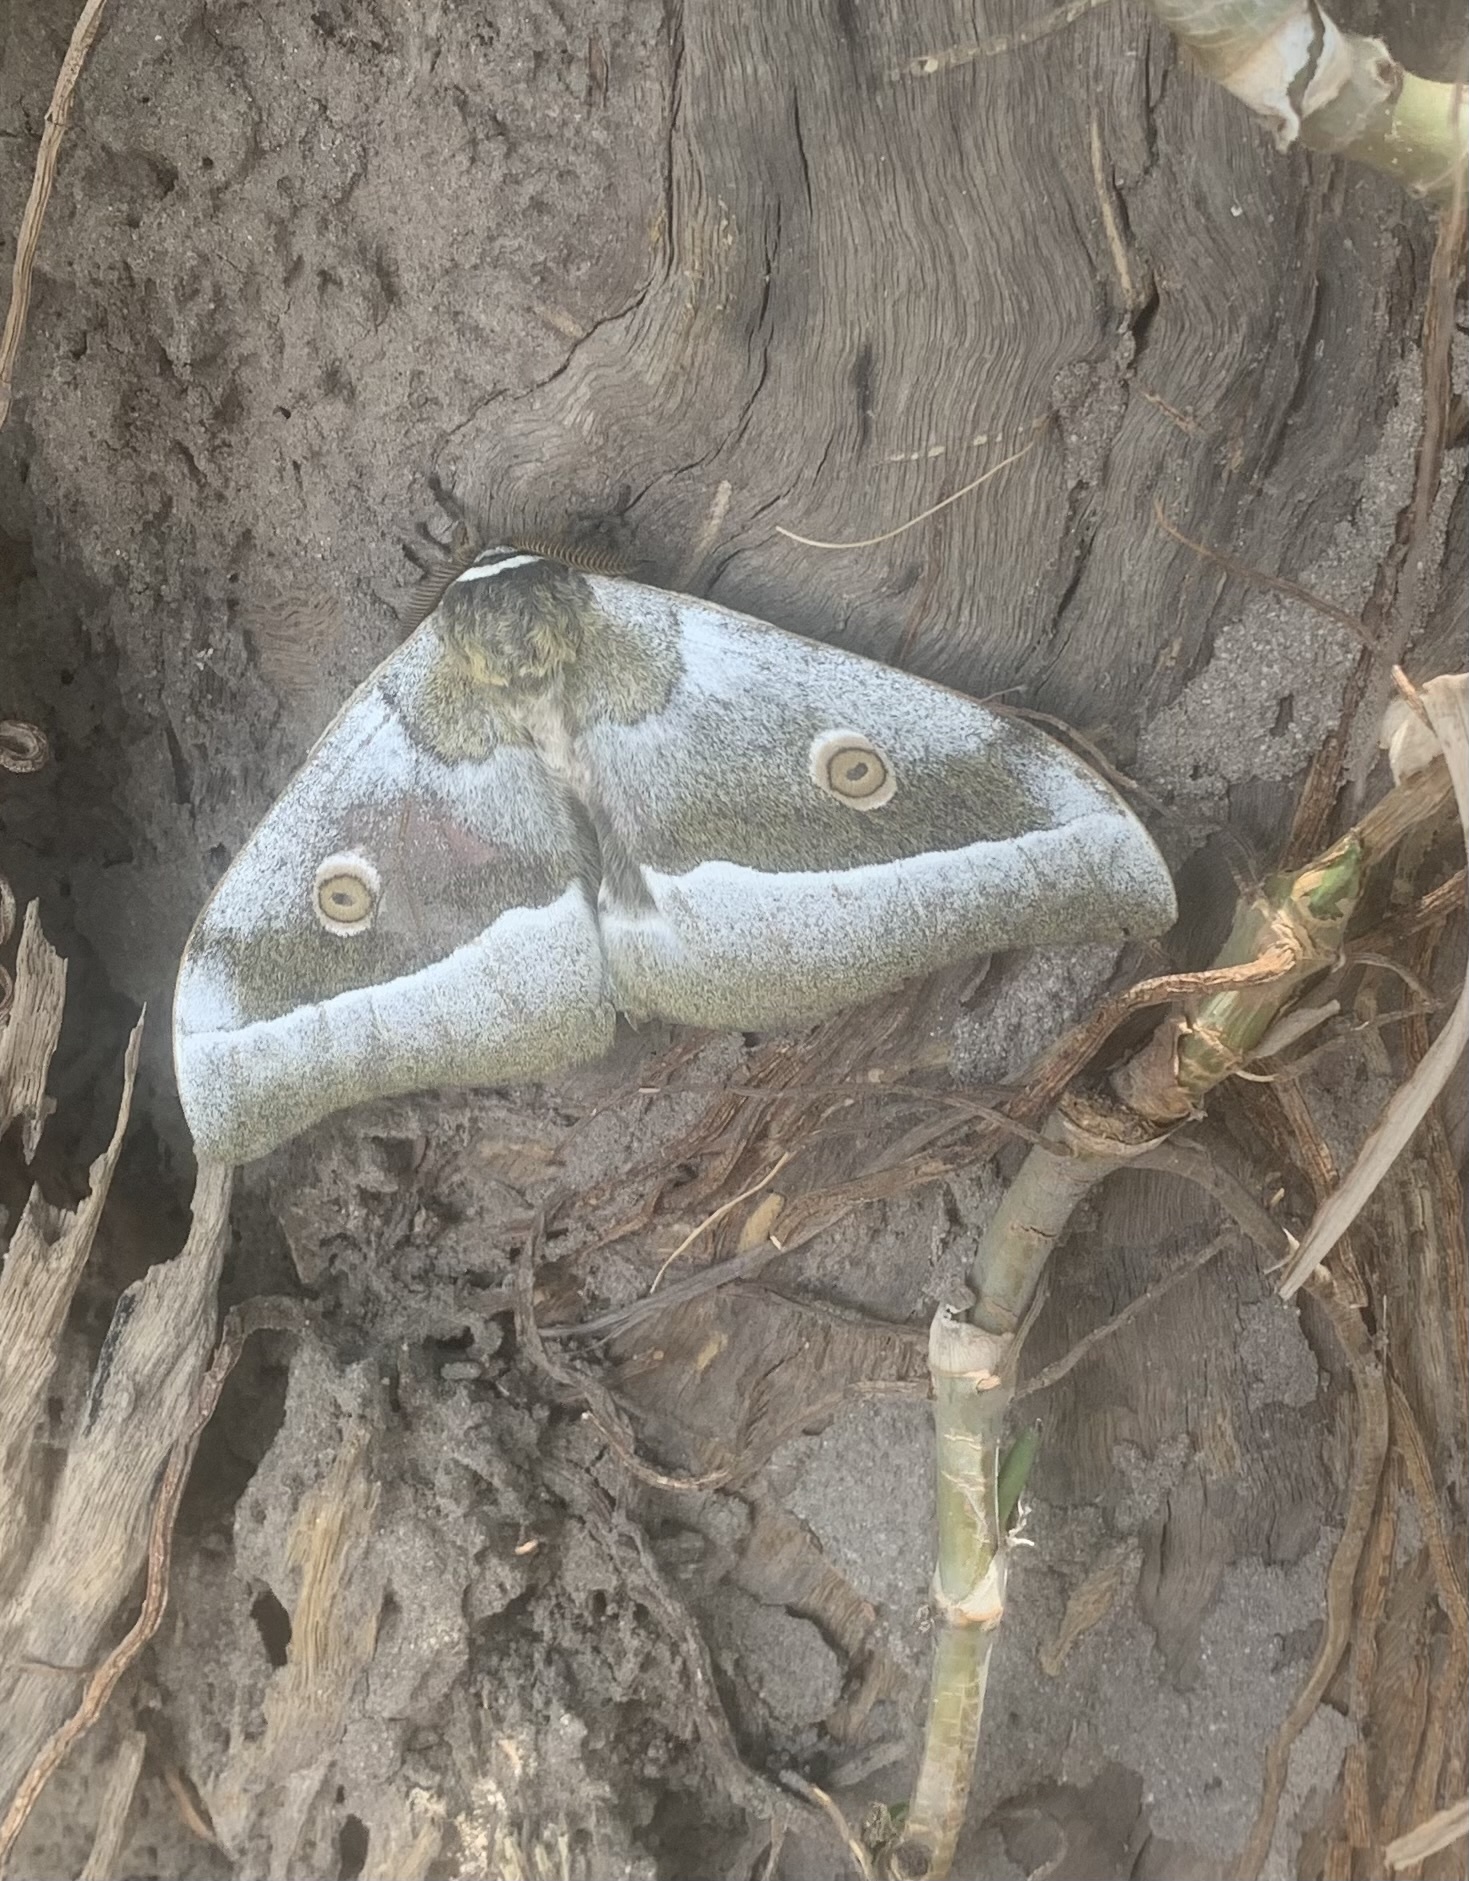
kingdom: Animalia
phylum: Arthropoda
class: Insecta
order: Lepidoptera
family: Saturniidae
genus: Gonimbrasia
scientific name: Gonimbrasia zambesina
